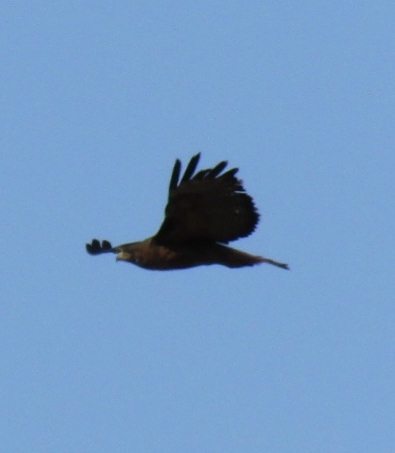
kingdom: Animalia
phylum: Chordata
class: Aves
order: Accipitriformes
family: Accipitridae
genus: Buteo
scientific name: Buteo jamaicensis
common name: Red-tailed hawk
